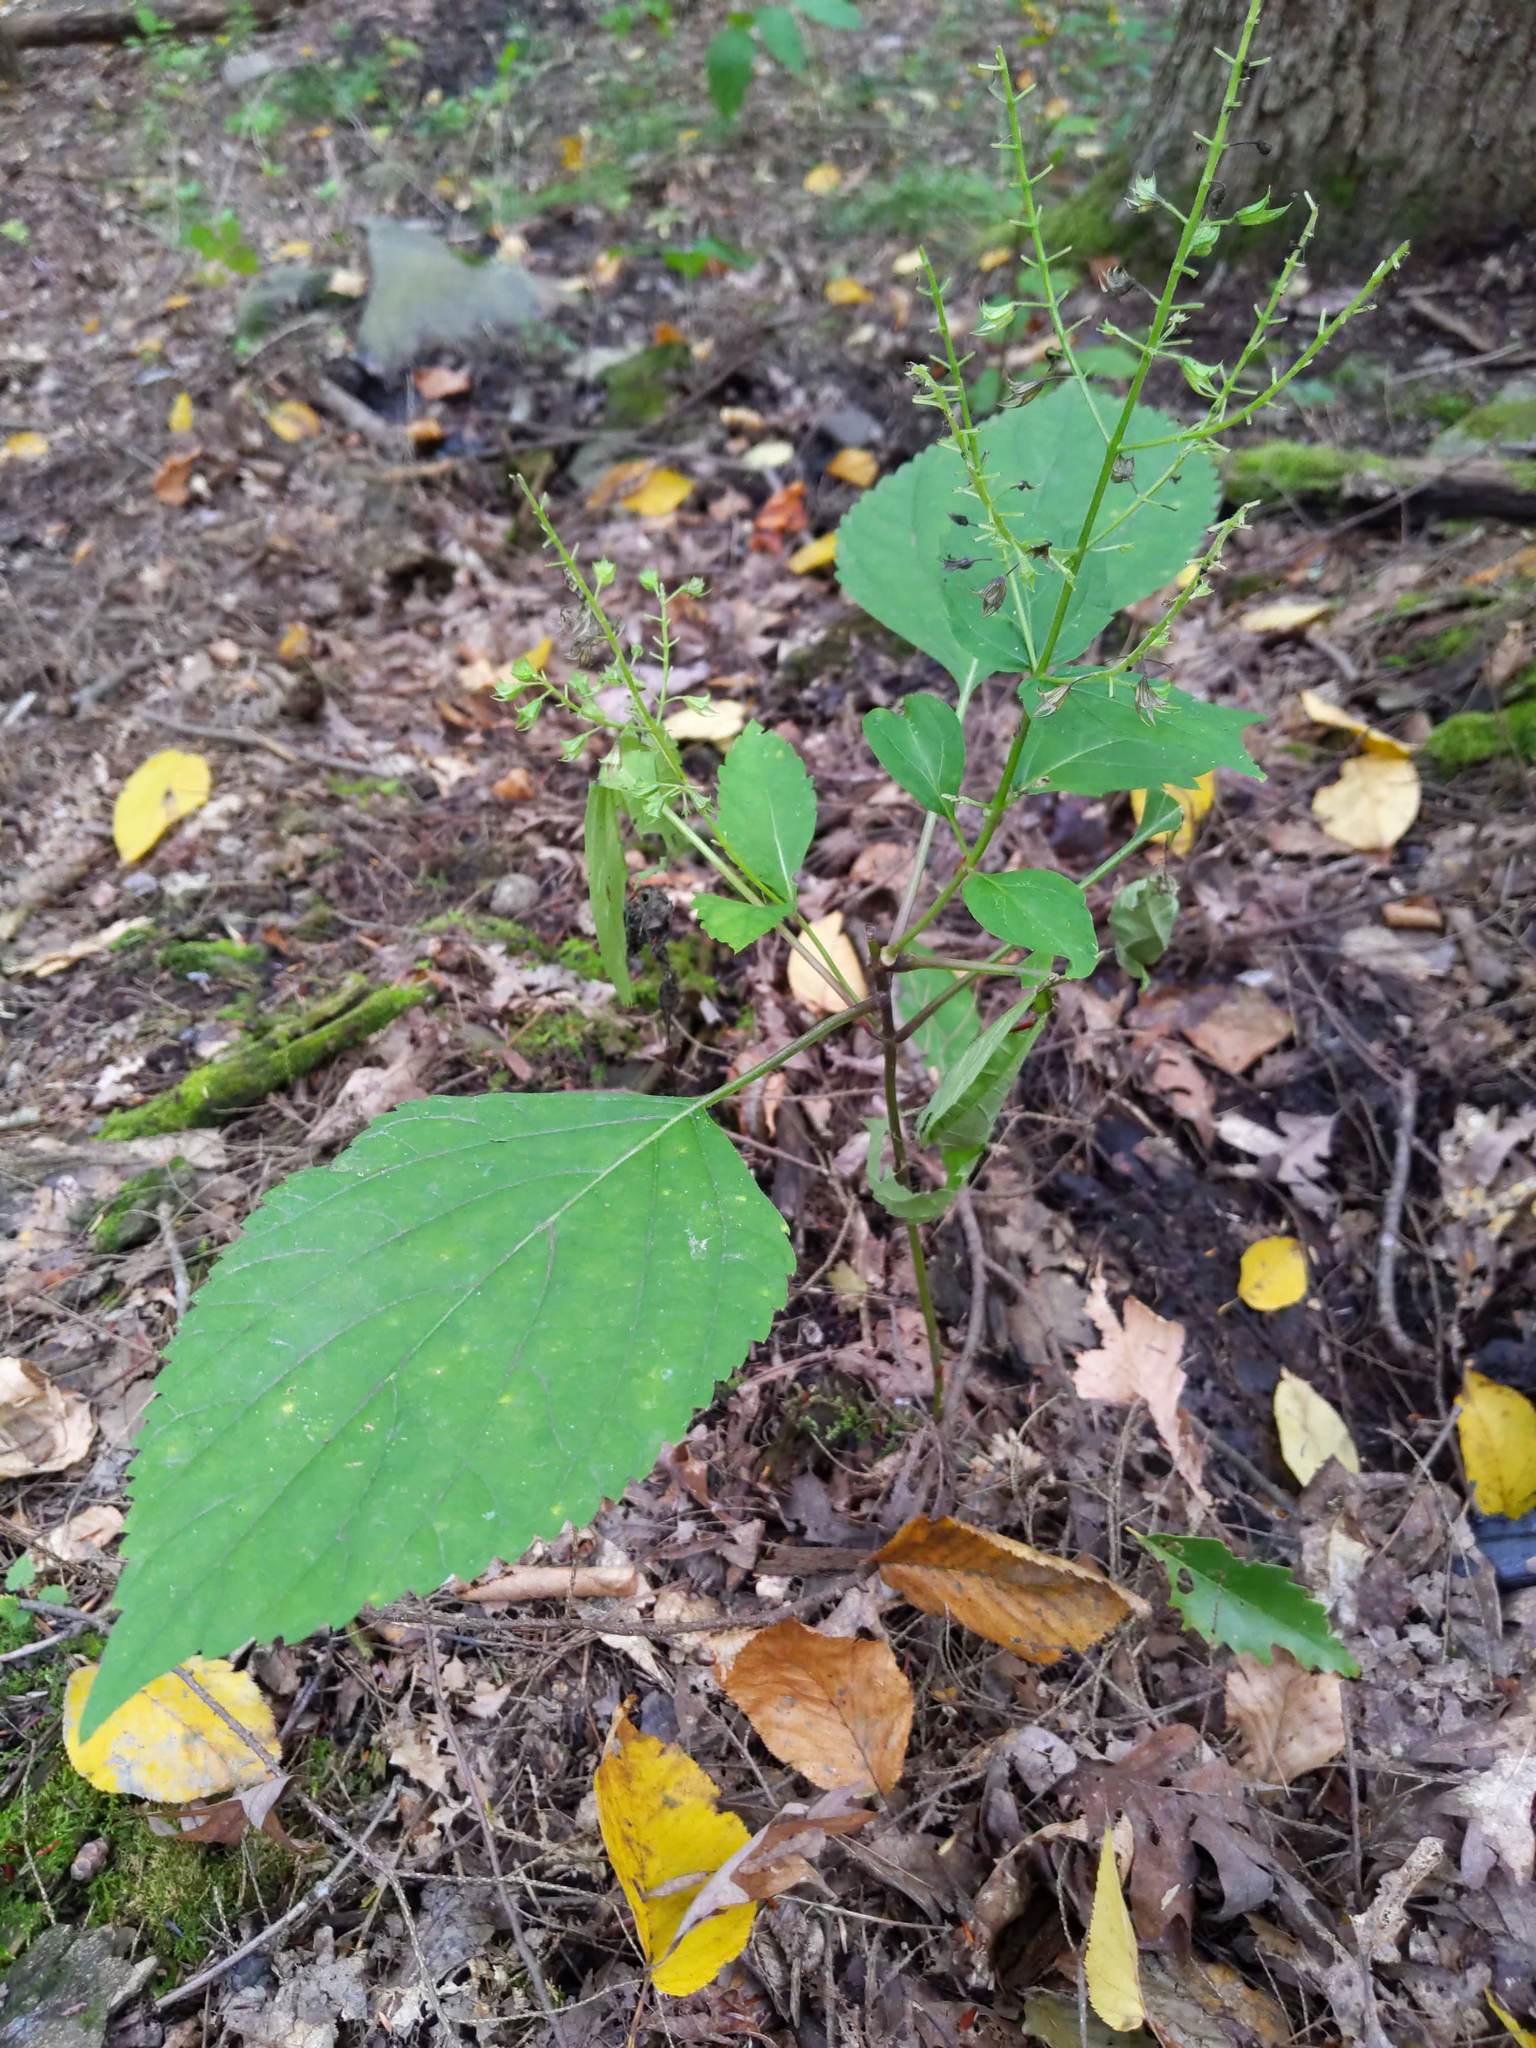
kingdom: Plantae
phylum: Tracheophyta
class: Magnoliopsida
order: Lamiales
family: Lamiaceae
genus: Collinsonia
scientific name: Collinsonia canadensis
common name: Northern horsebalm
